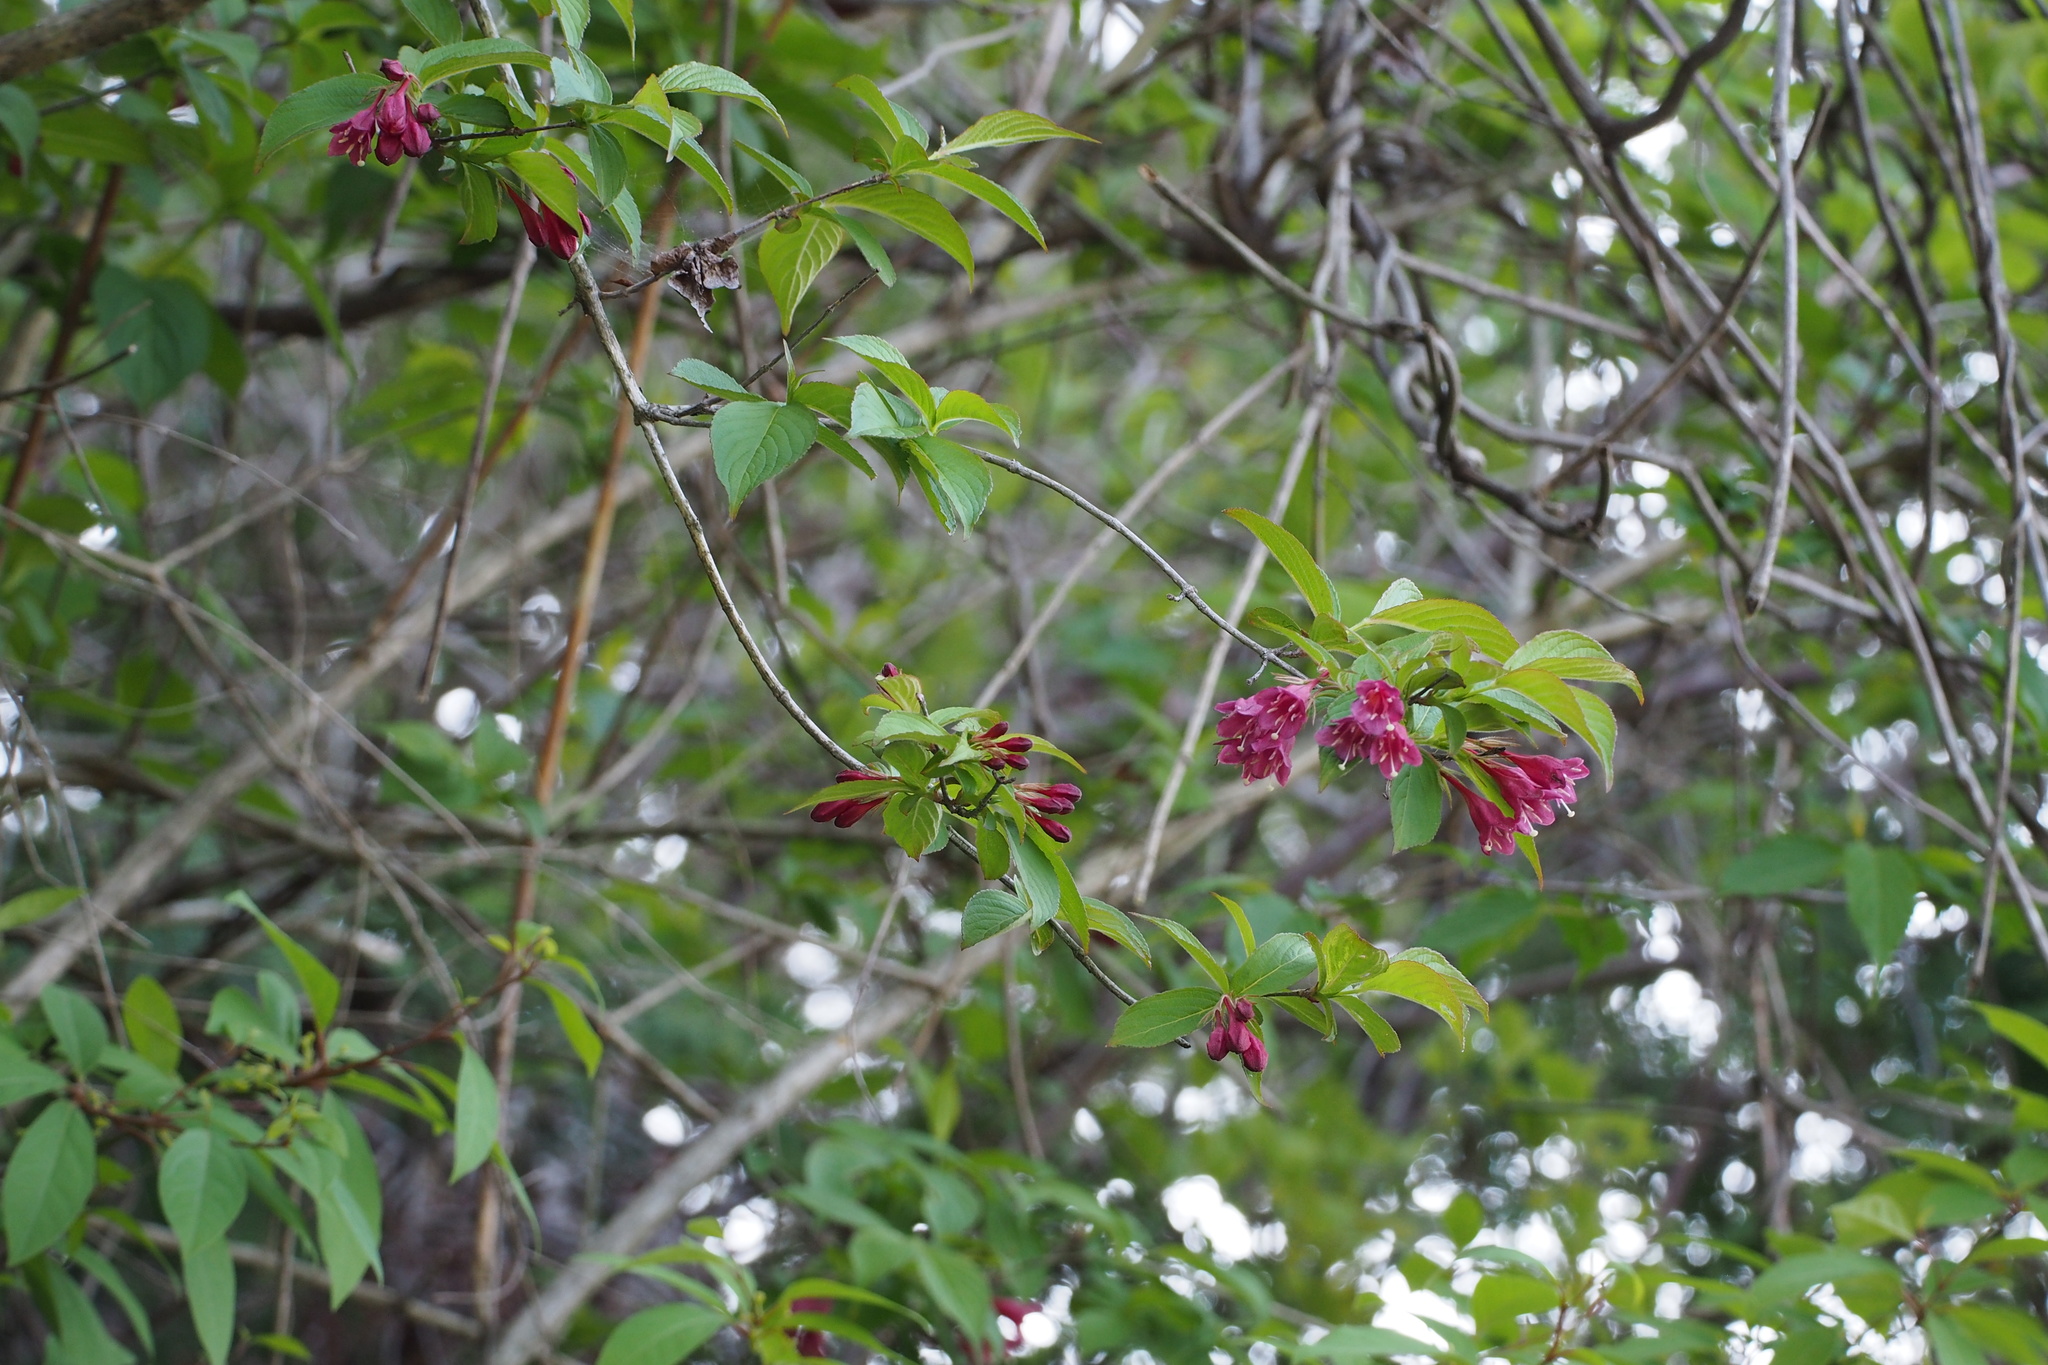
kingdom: Plantae
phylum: Tracheophyta
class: Magnoliopsida
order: Dipsacales
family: Caprifoliaceae
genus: Weigela
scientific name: Weigela floribunda
